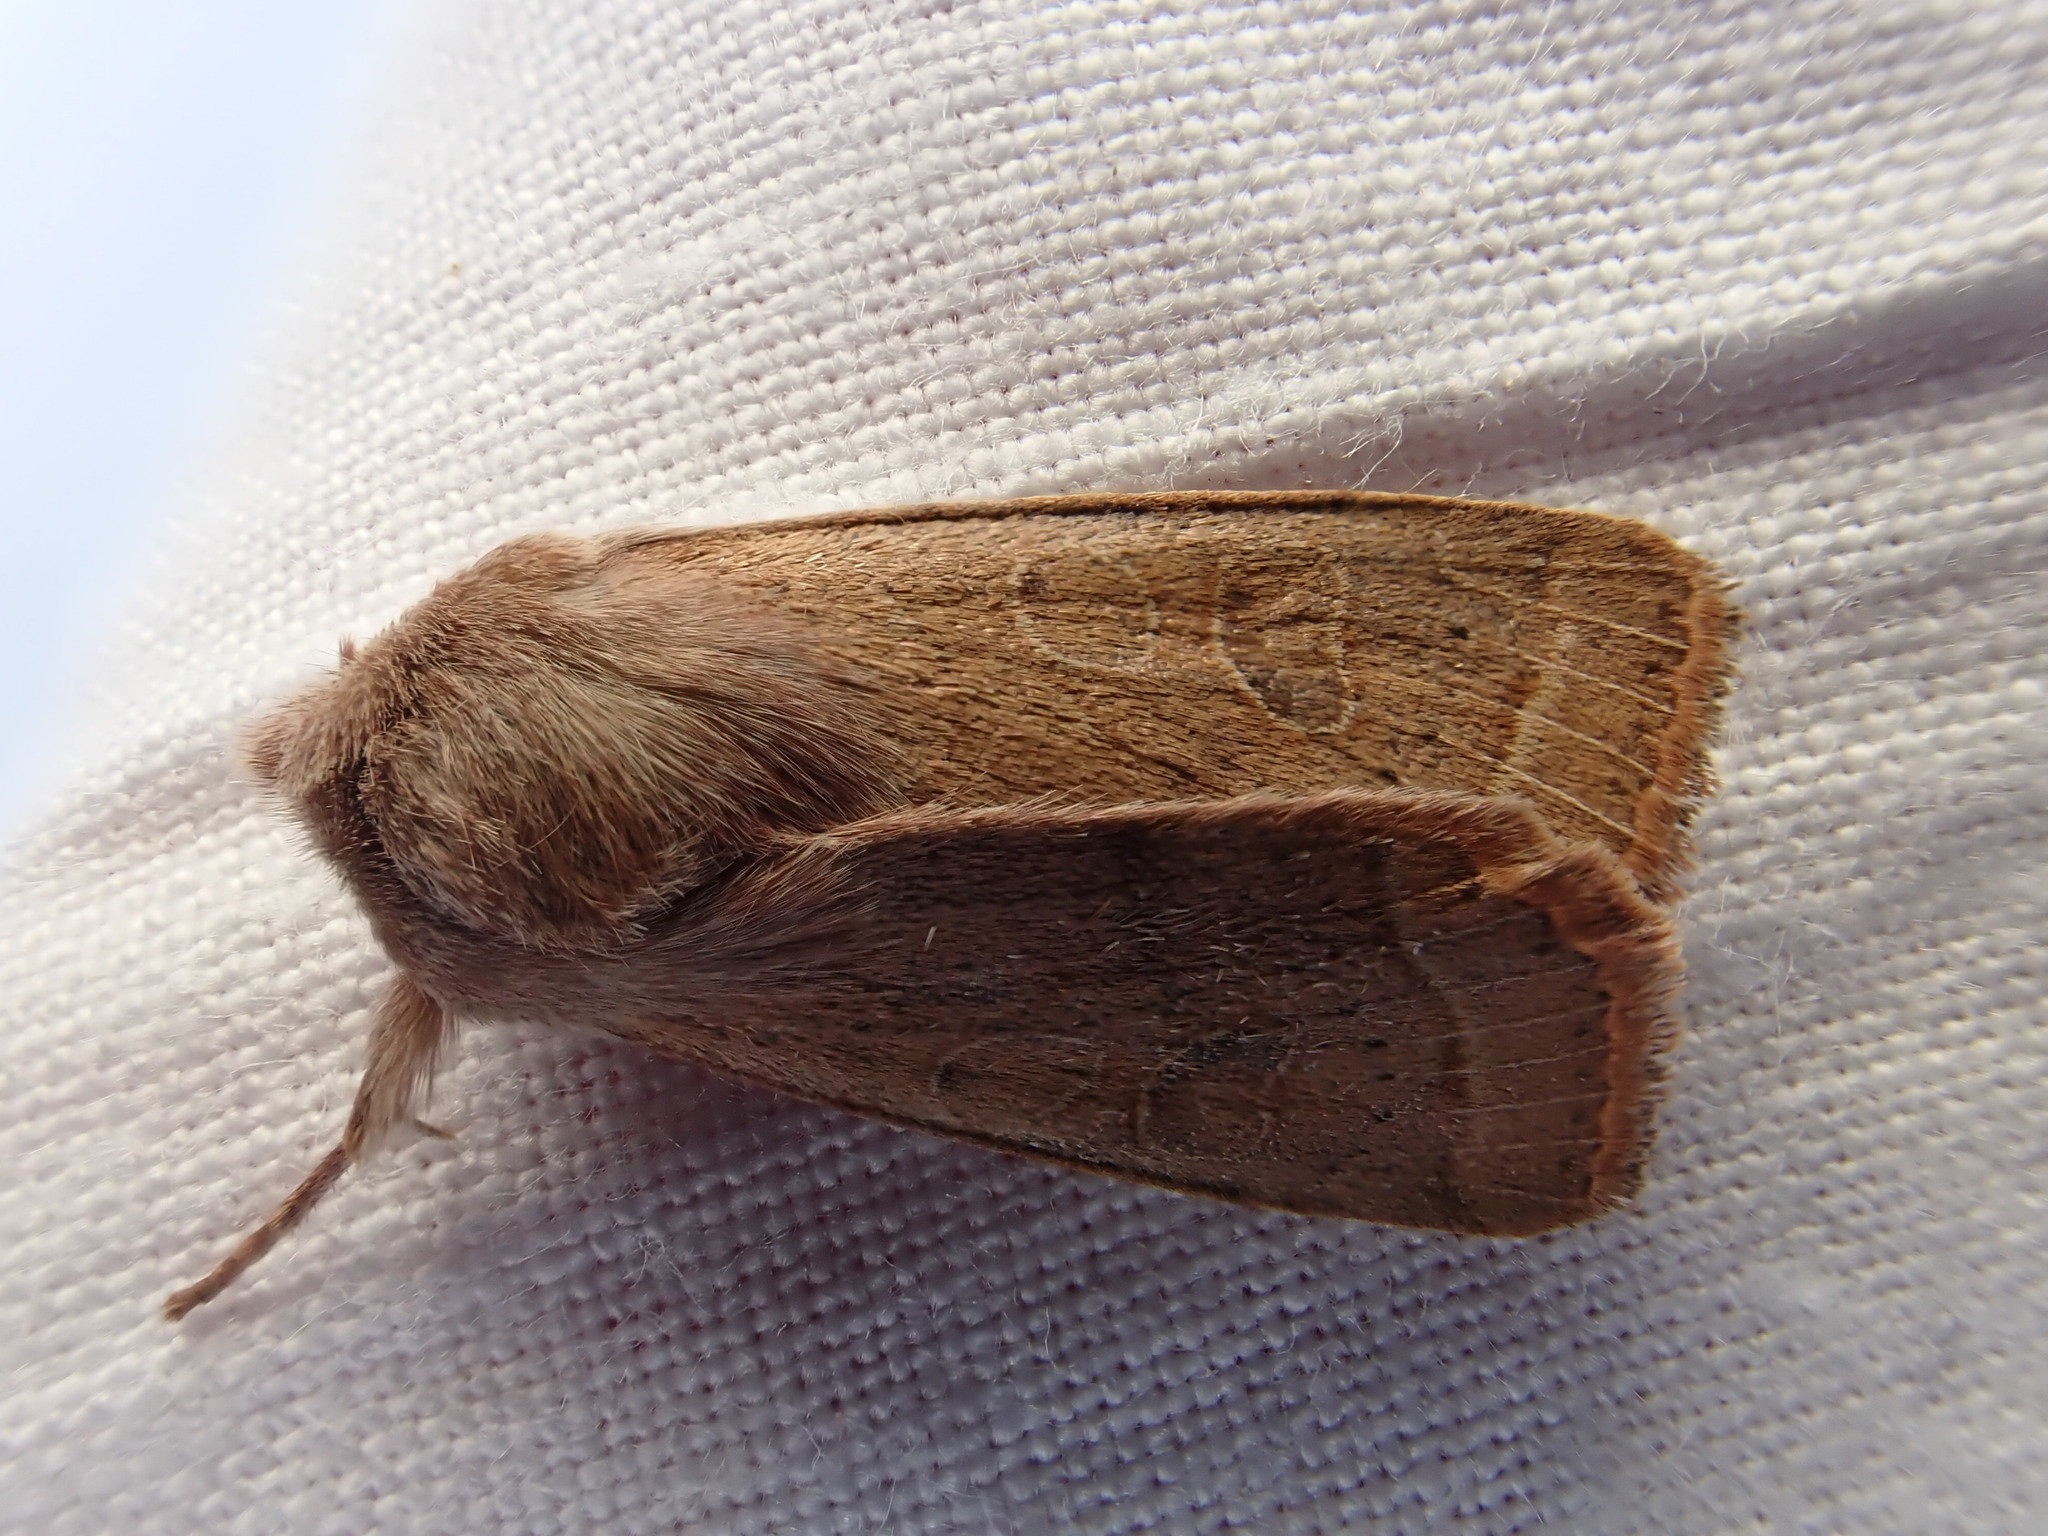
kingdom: Animalia
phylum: Arthropoda
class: Insecta
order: Lepidoptera
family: Noctuidae
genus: Orthosia
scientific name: Orthosia cerasi
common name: Common quaker
